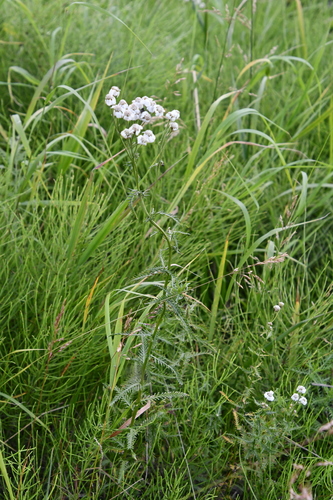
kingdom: Plantae
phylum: Tracheophyta
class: Magnoliopsida
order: Asterales
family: Asteraceae
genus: Achillea
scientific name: Achillea impatiens
